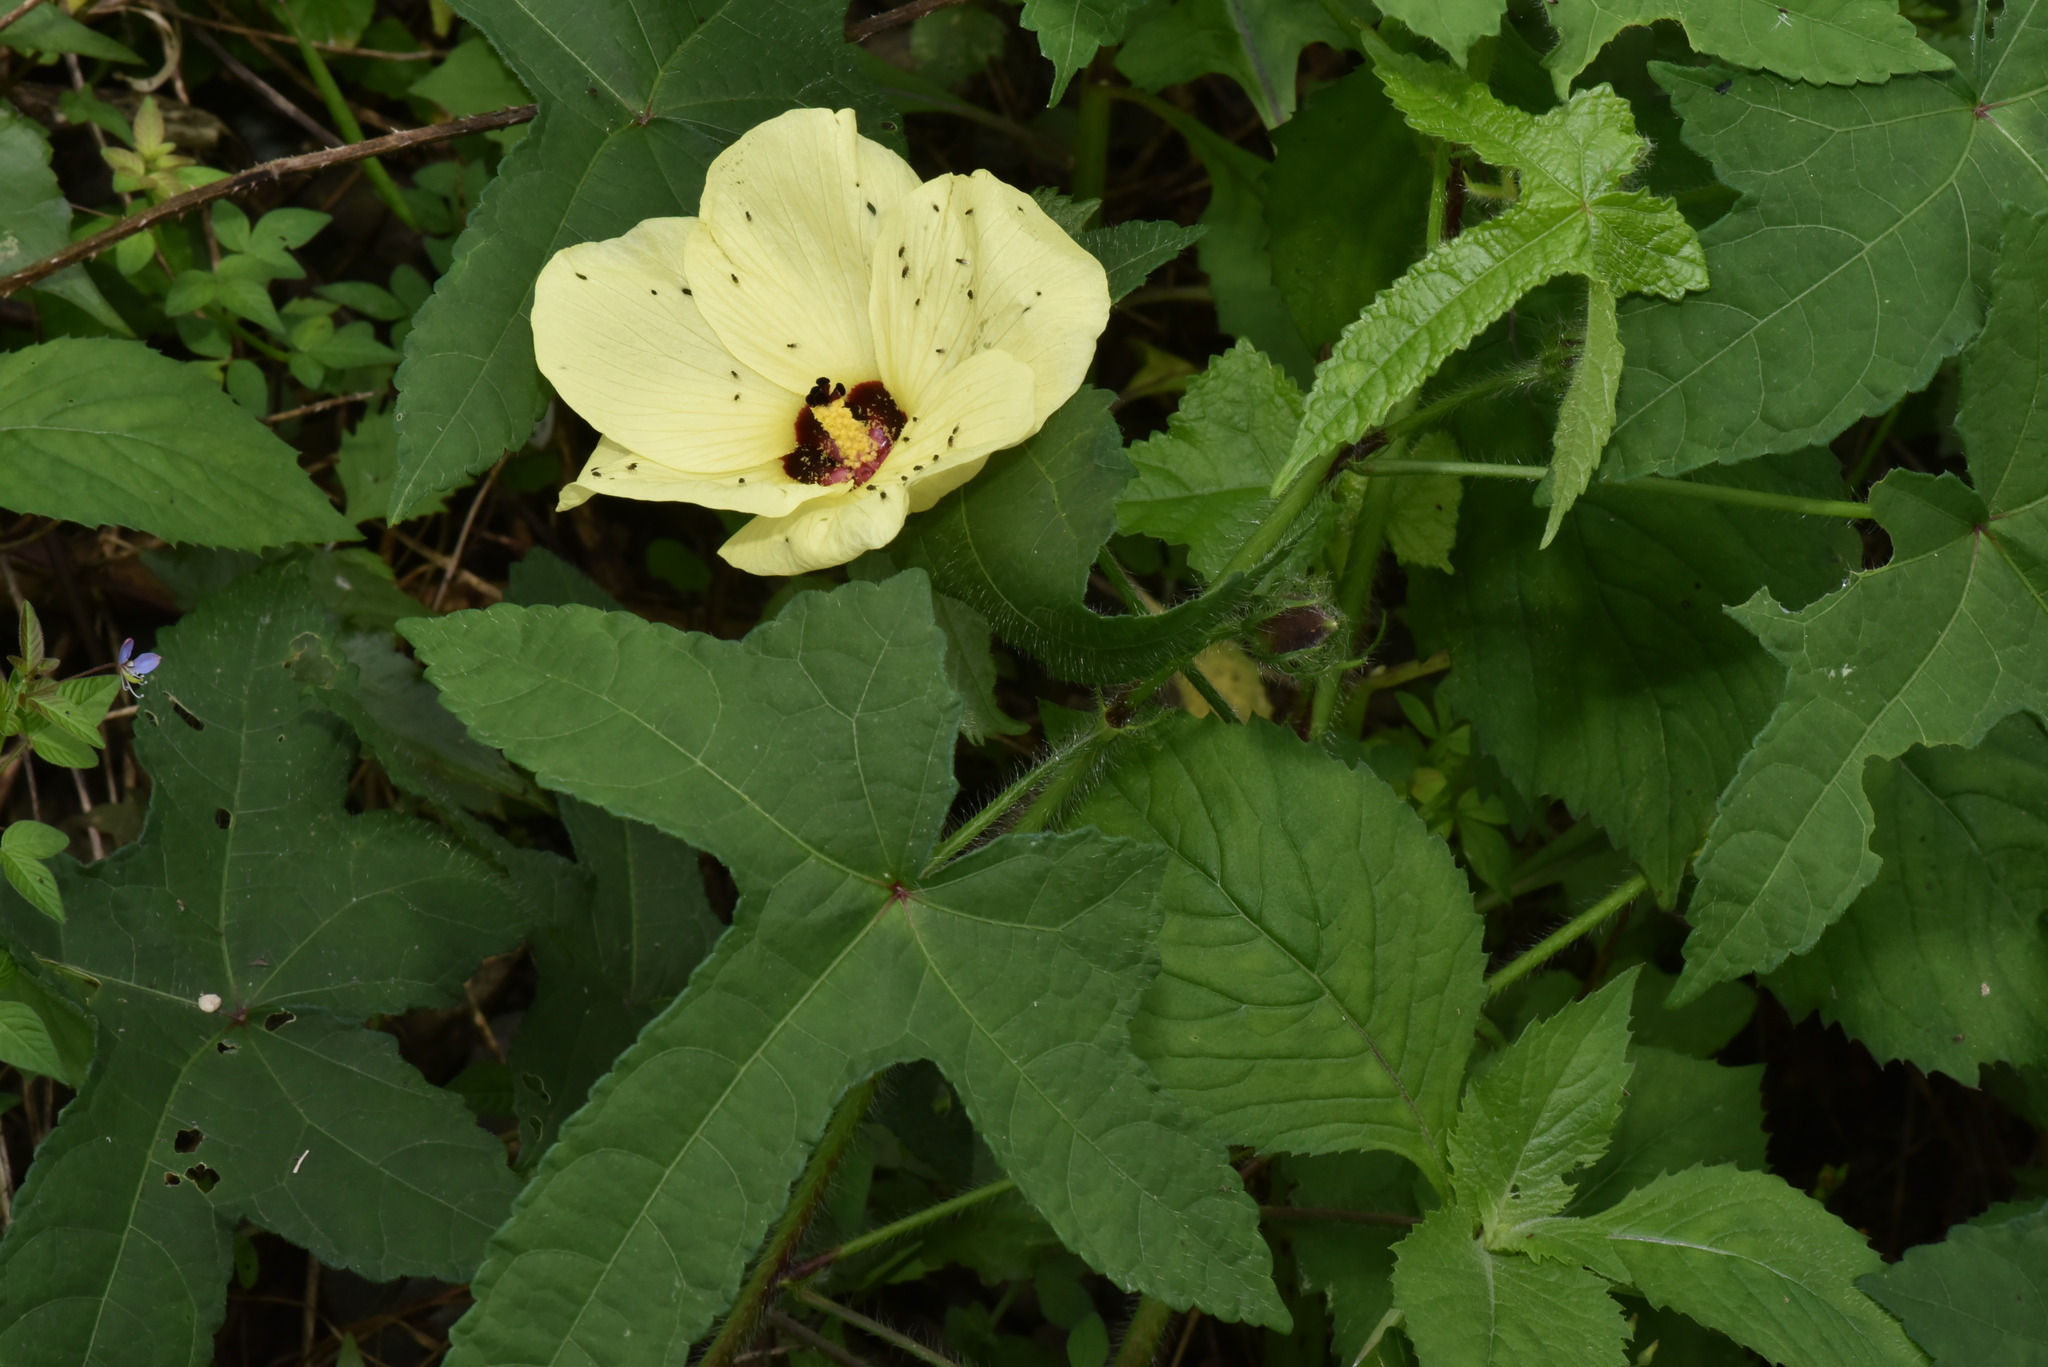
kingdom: Plantae
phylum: Tracheophyta
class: Magnoliopsida
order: Malvales
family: Malvaceae
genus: Abelmoschus
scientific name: Abelmoschus moschatus
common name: Musk okra
